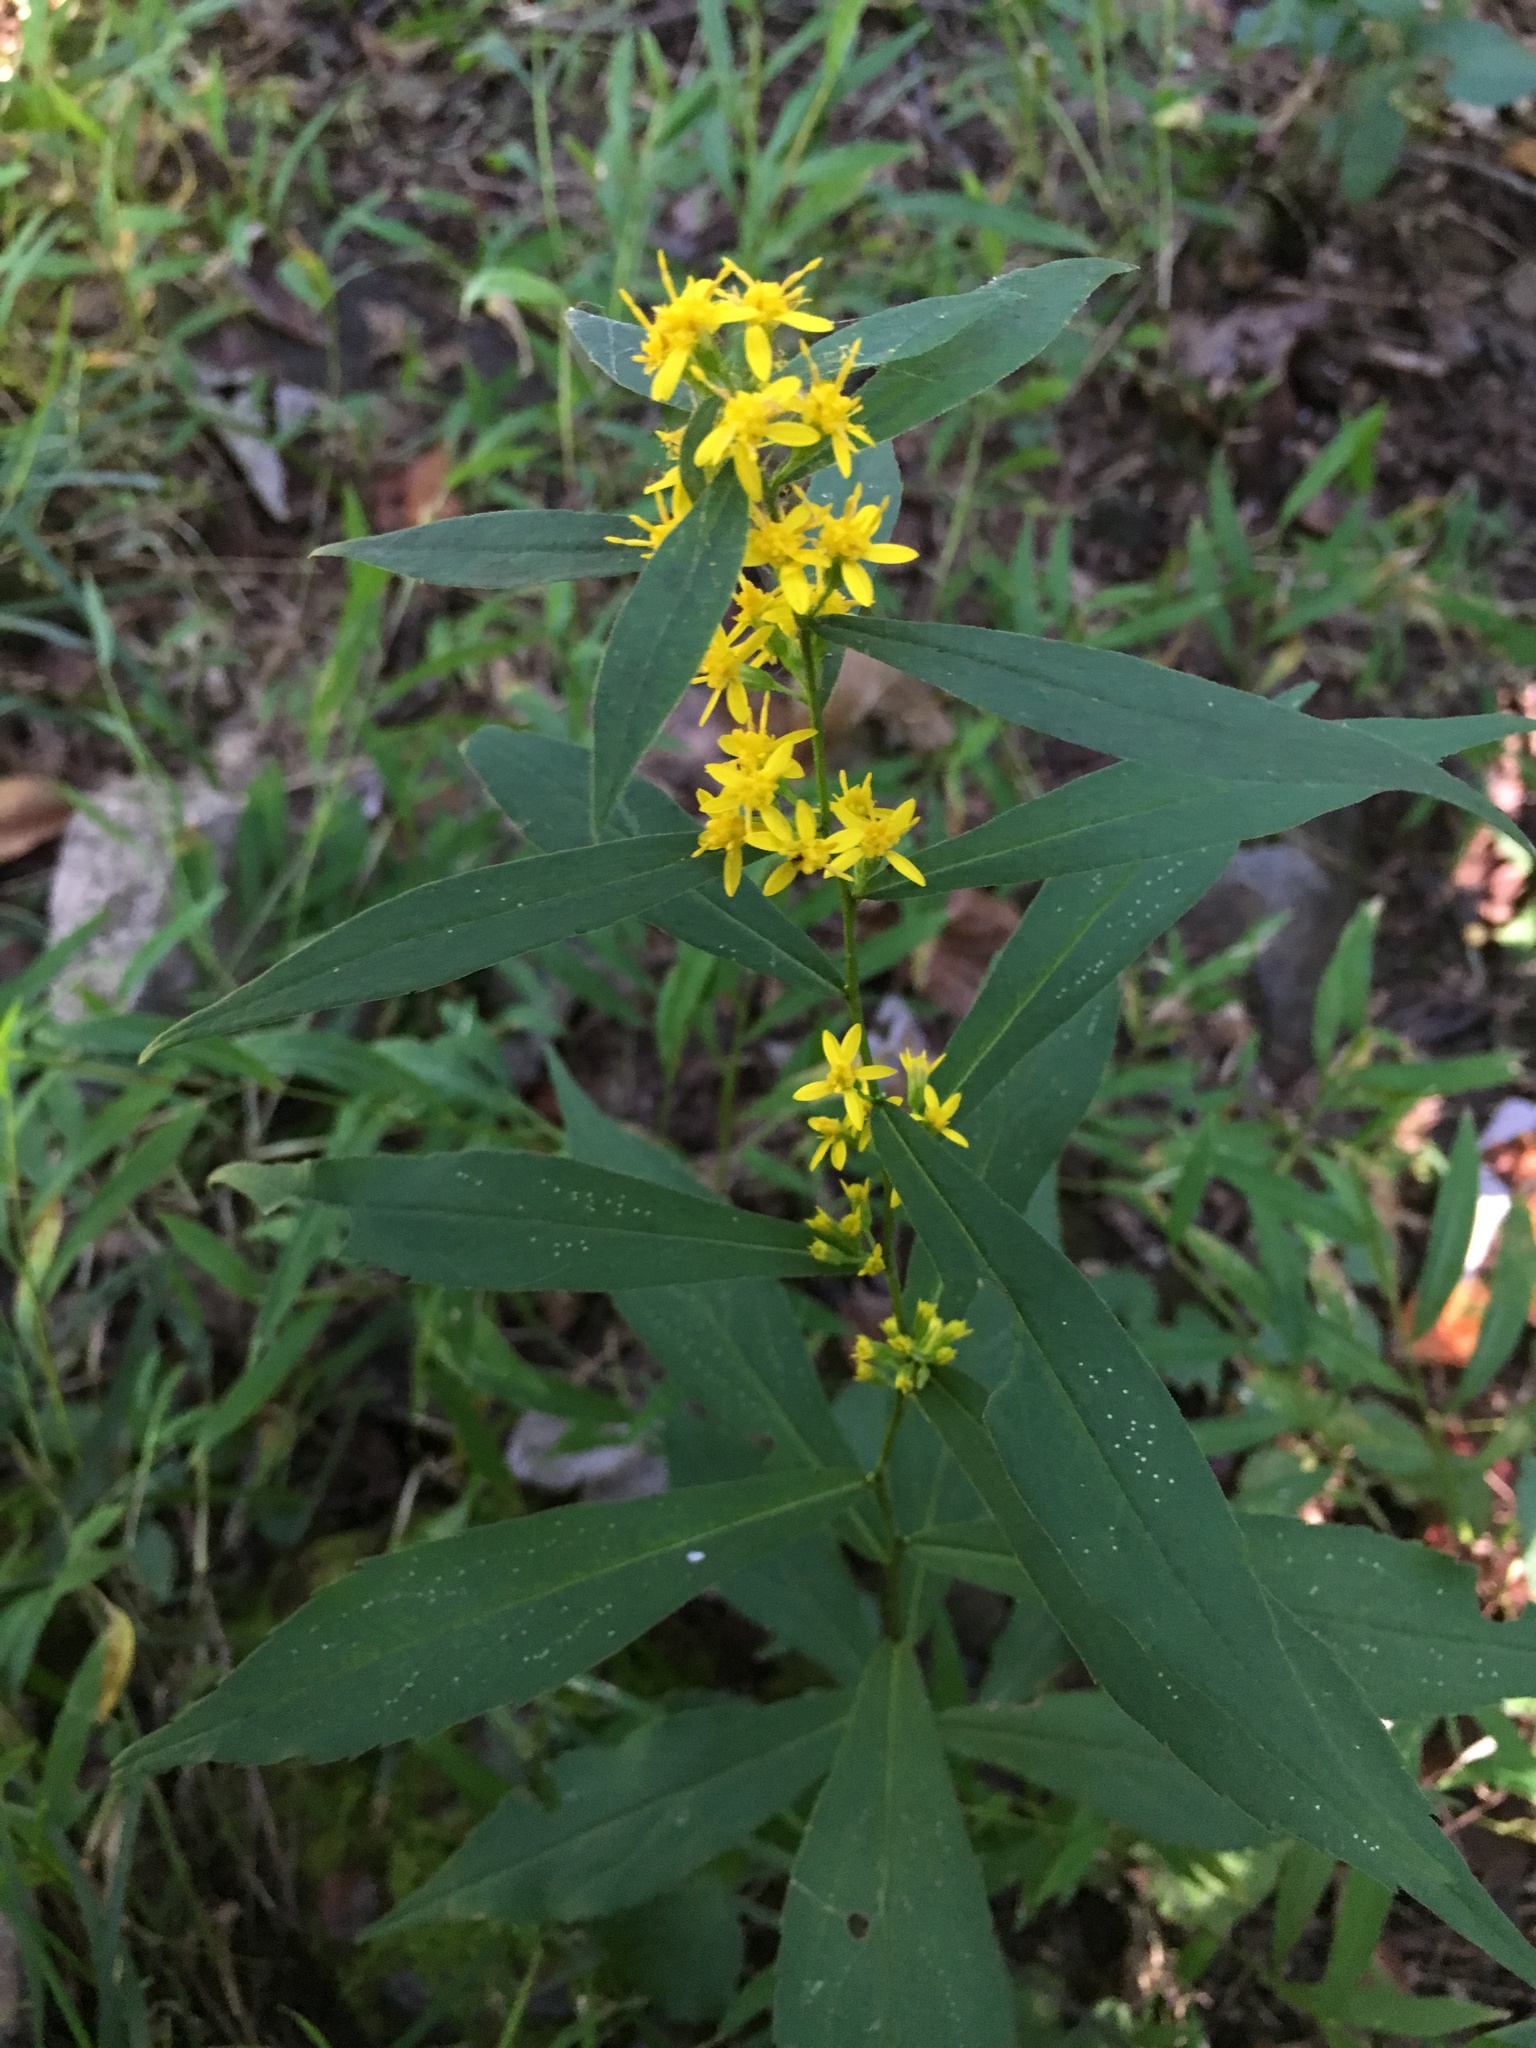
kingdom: Plantae
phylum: Tracheophyta
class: Magnoliopsida
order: Asterales
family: Asteraceae
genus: Solidago
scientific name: Solidago caesia
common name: Woodland goldenrod
